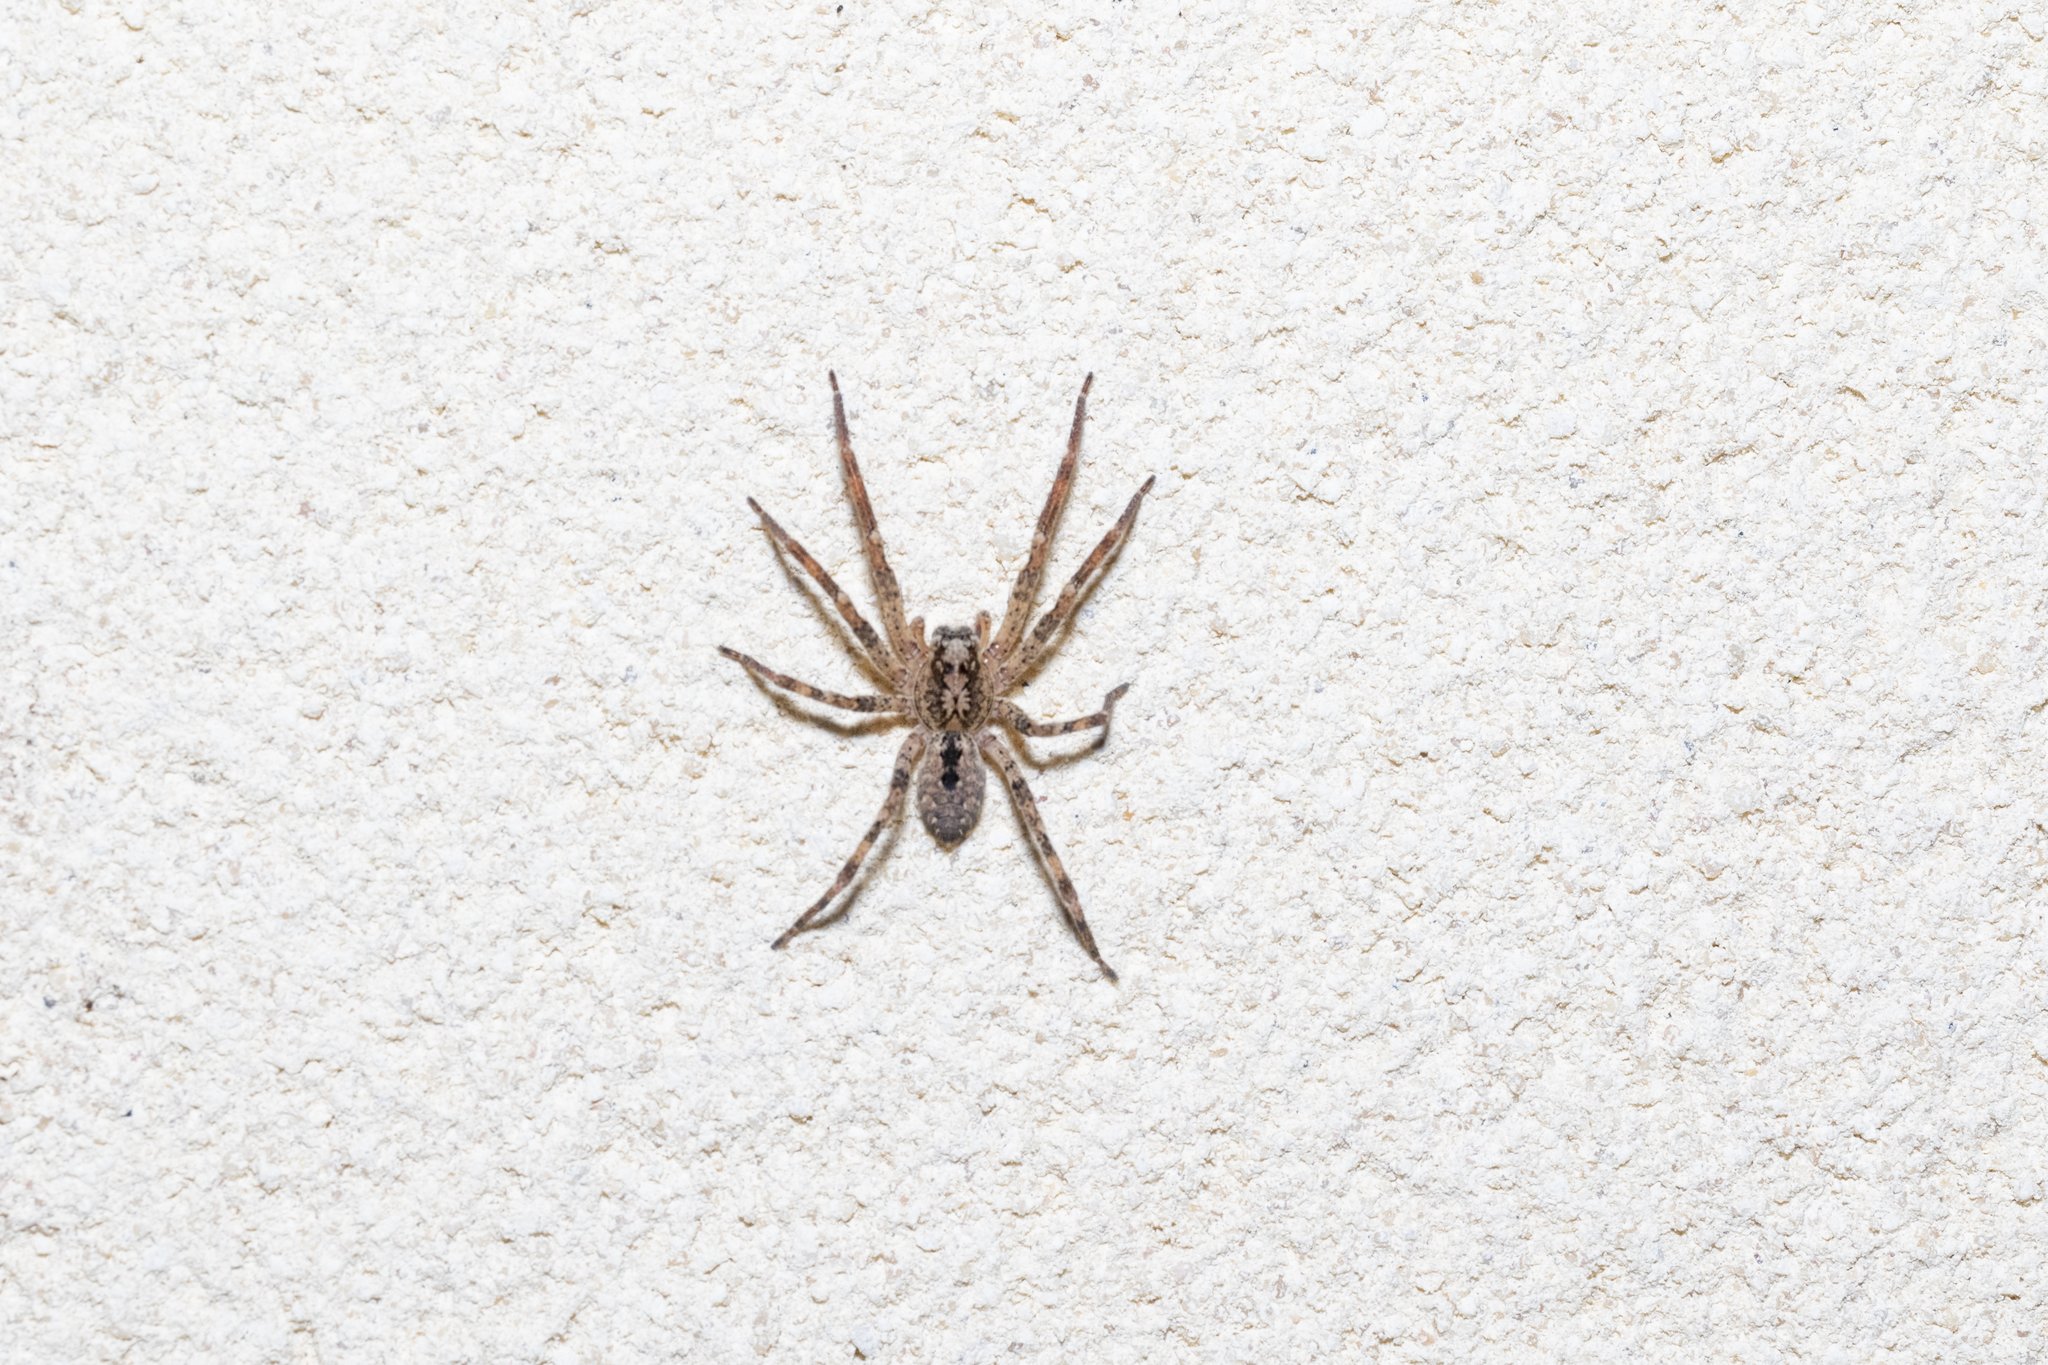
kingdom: Animalia
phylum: Arthropoda
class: Arachnida
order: Araneae
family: Zoropsidae
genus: Zoropsis
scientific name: Zoropsis spinimana
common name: Zoropsid spider
